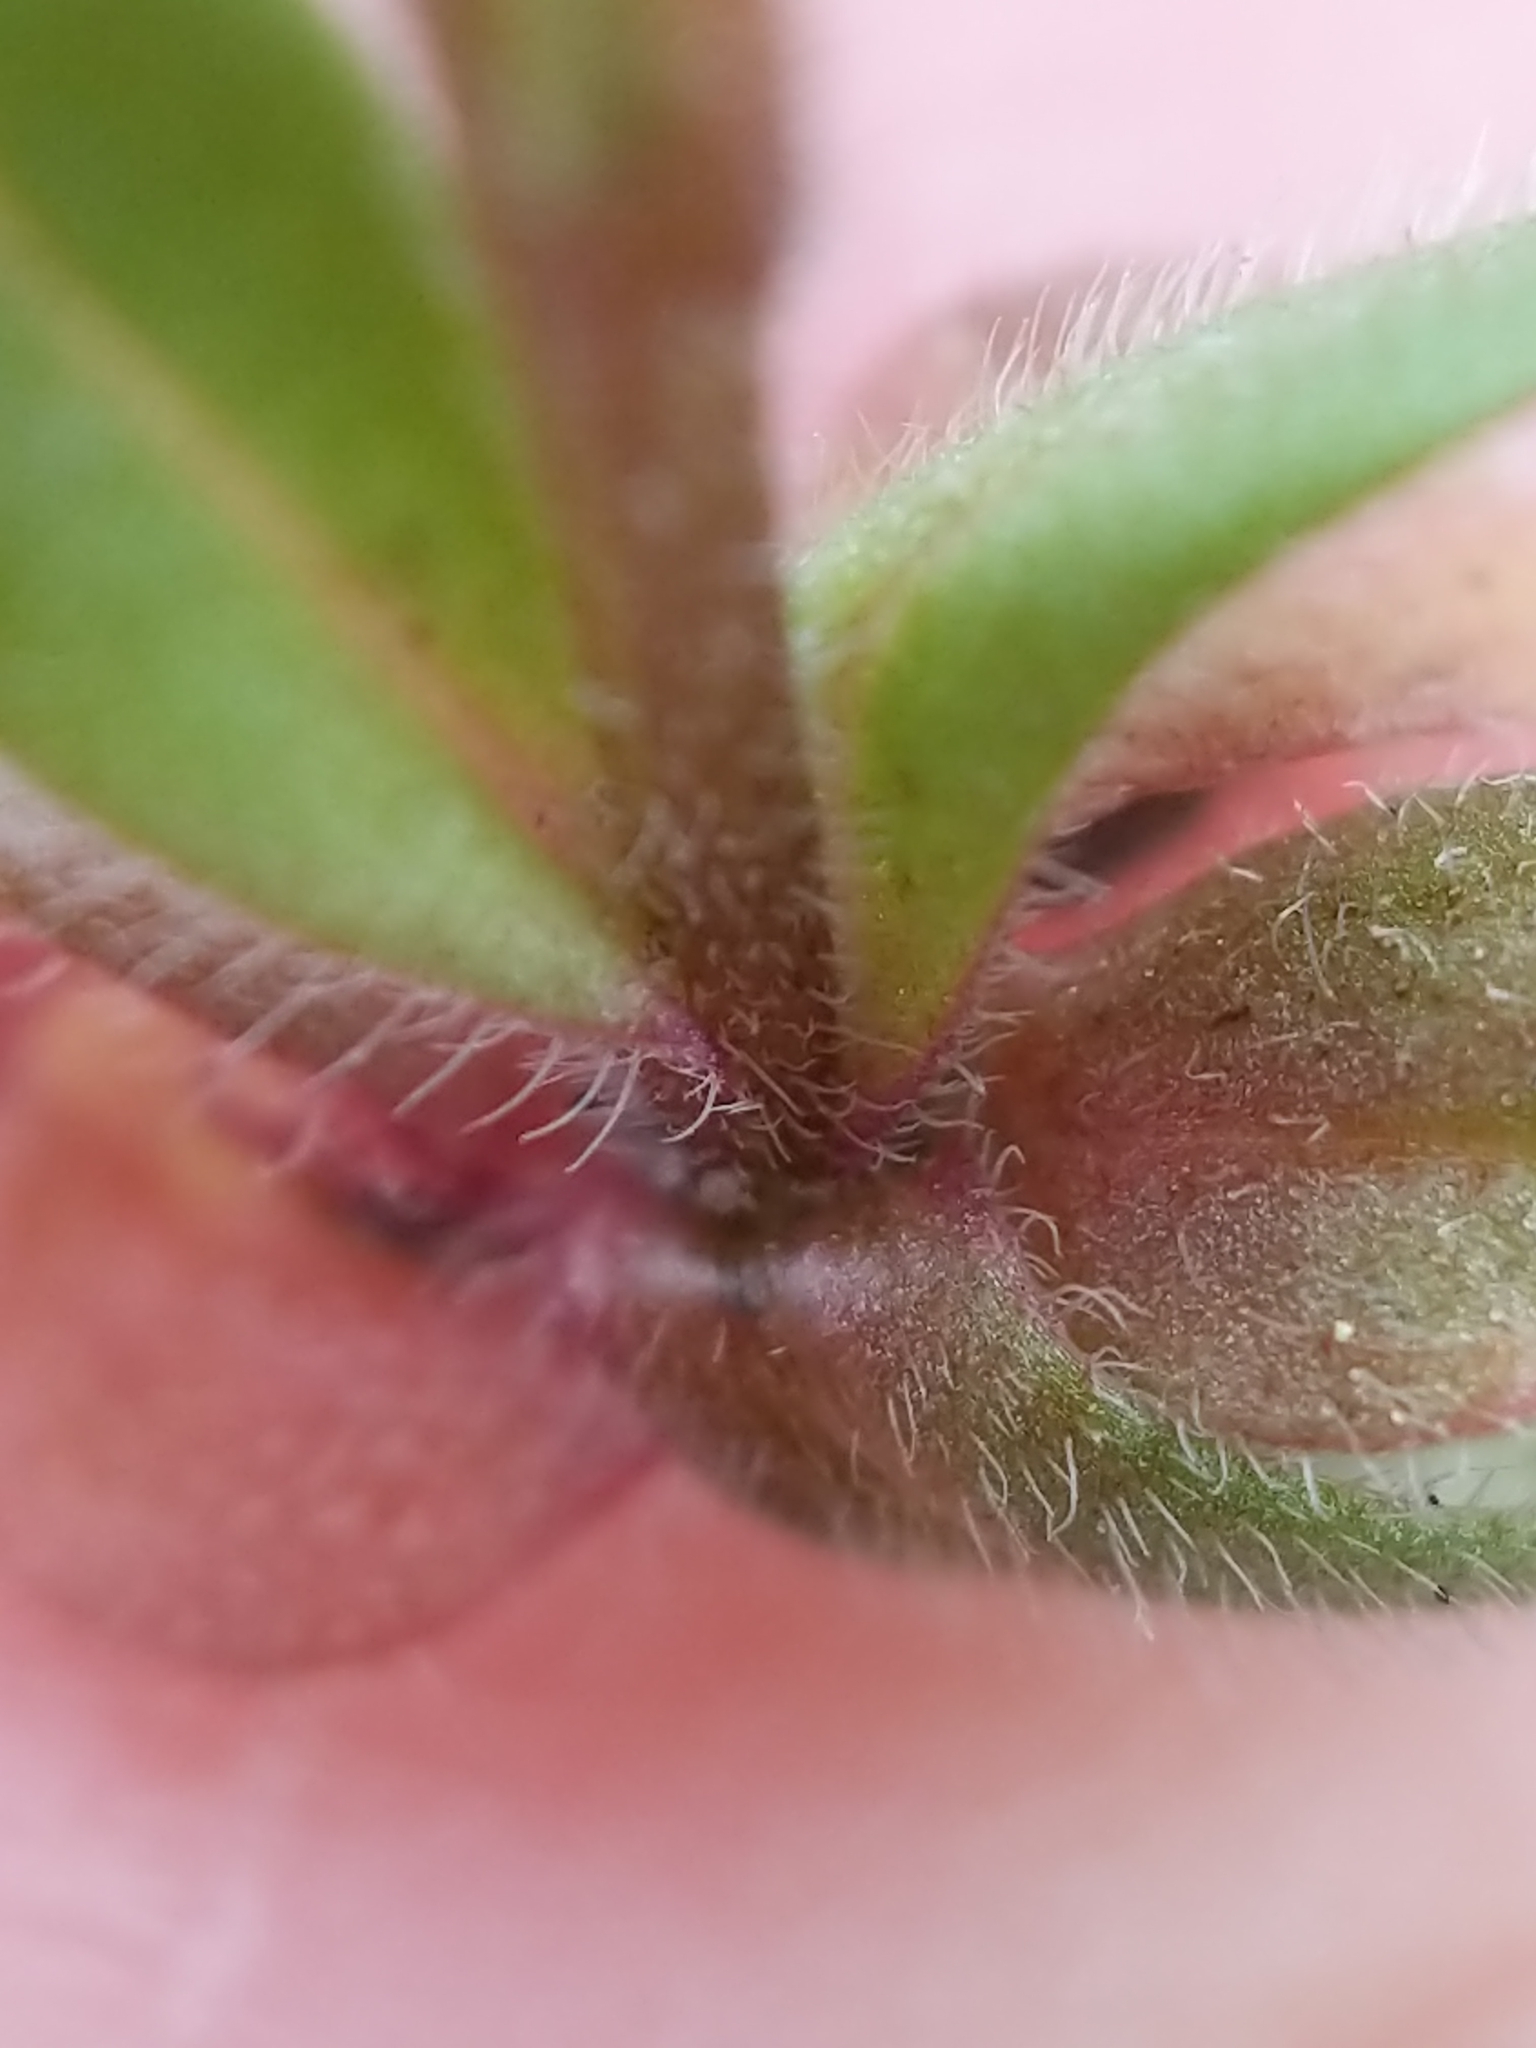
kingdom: Plantae
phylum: Tracheophyta
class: Magnoliopsida
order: Boraginales
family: Boraginaceae
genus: Myosotis
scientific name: Myosotis stricta
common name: Strict forget-me-not
